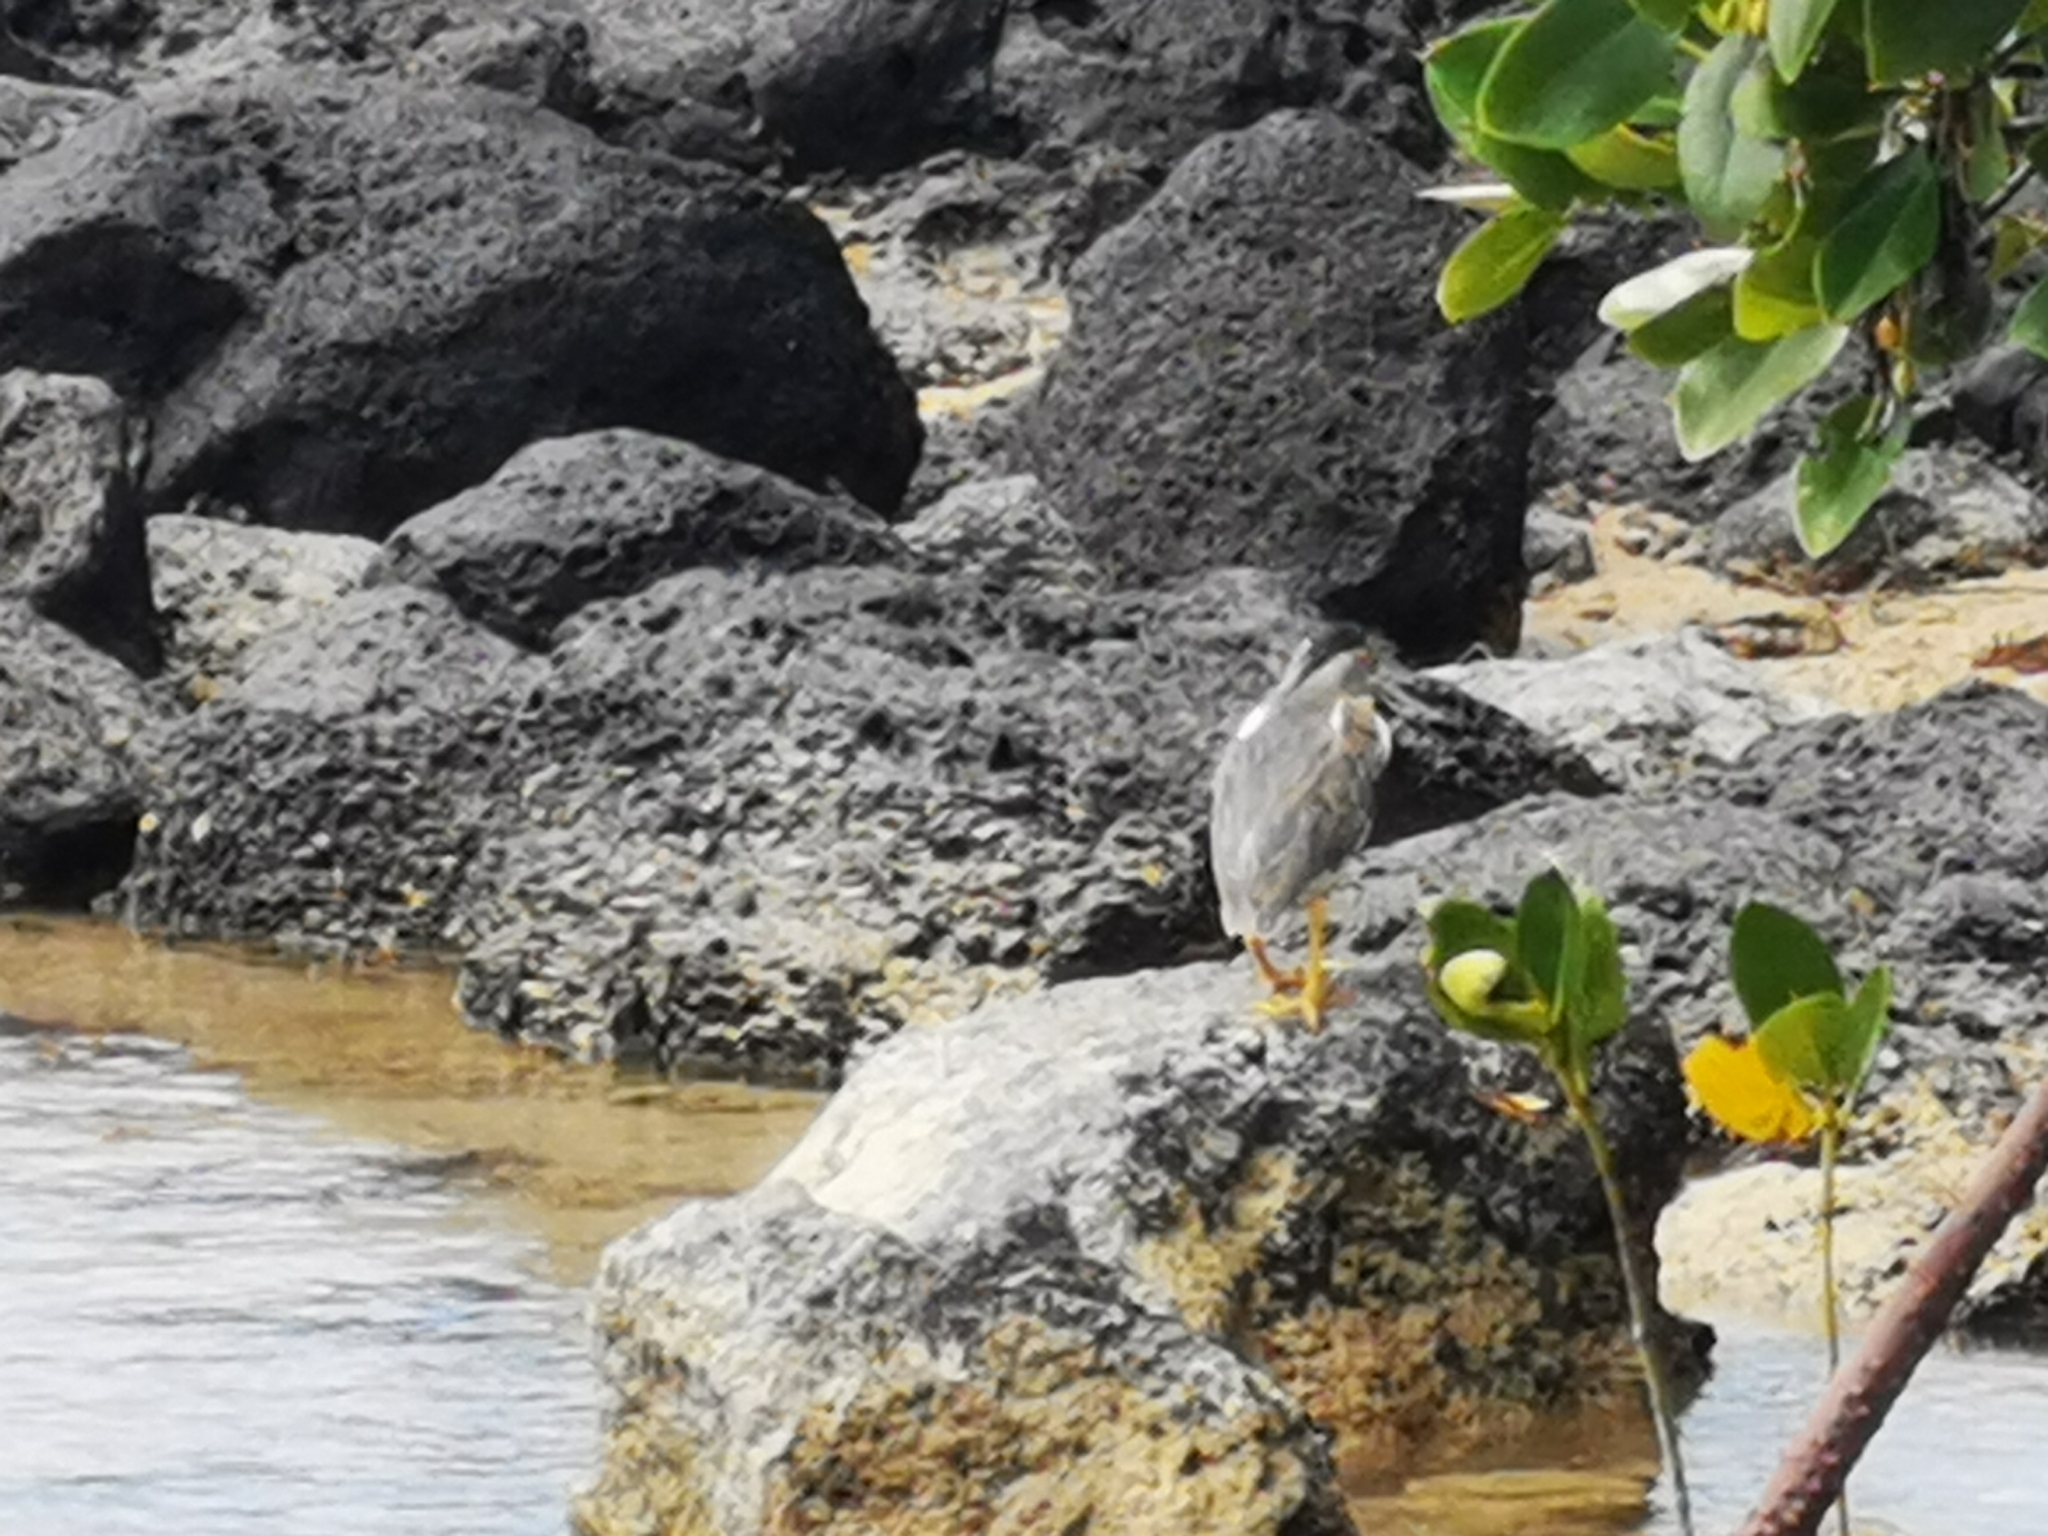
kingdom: Animalia
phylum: Chordata
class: Aves
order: Pelecaniformes
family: Ardeidae
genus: Butorides
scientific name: Butorides striata
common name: Striated heron
